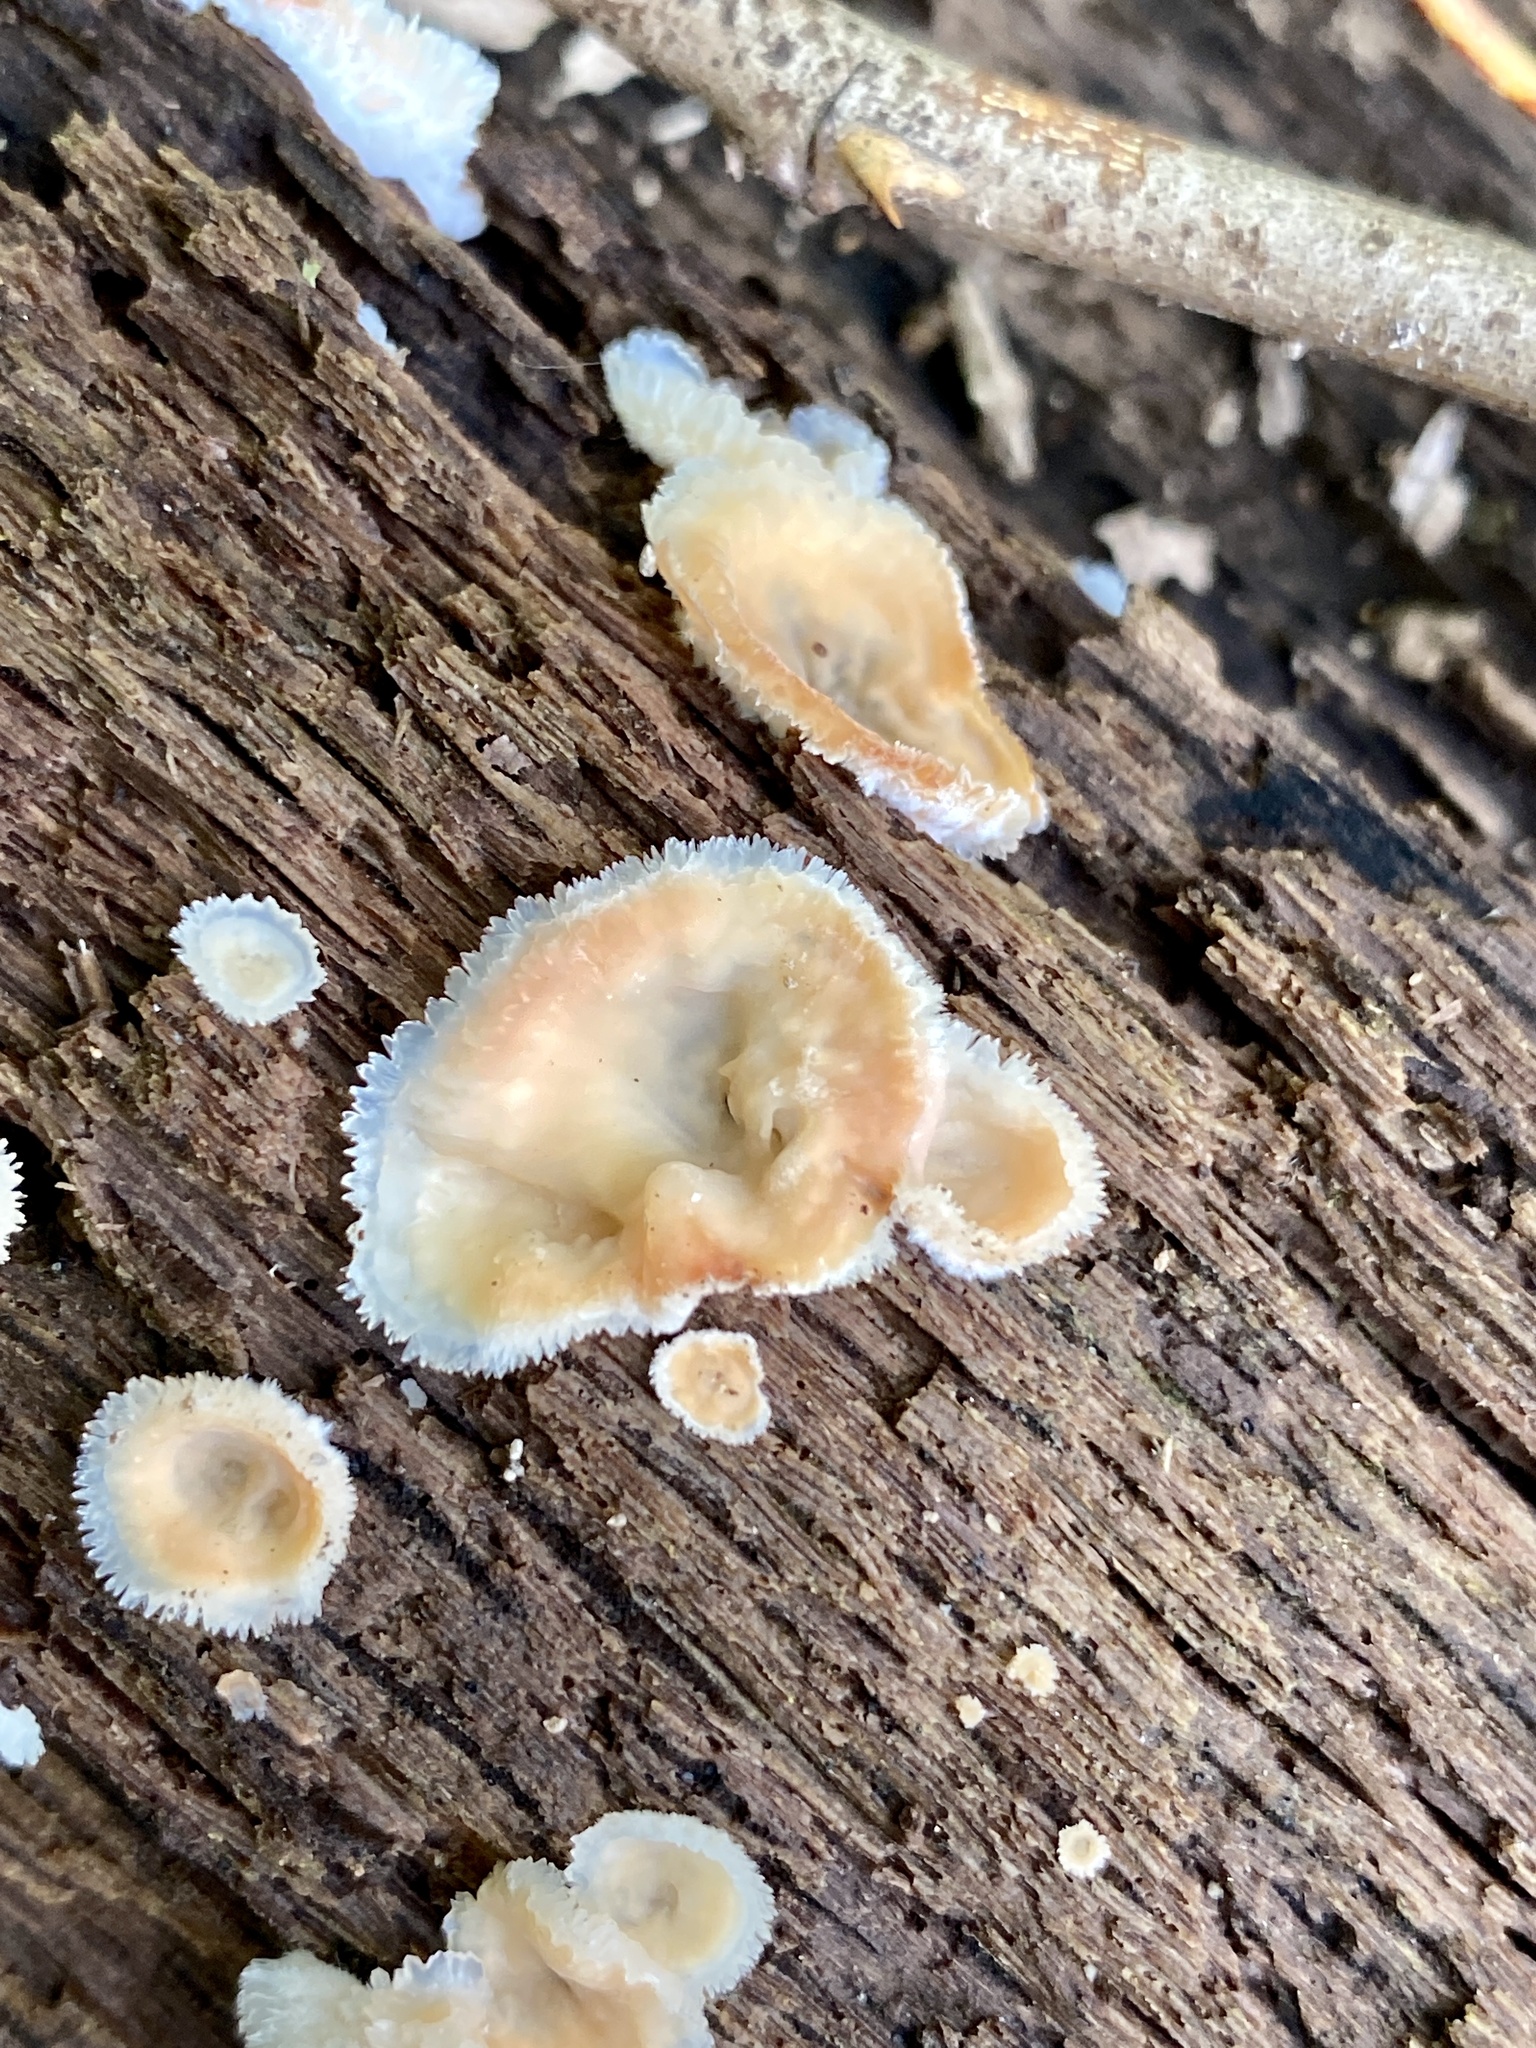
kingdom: Fungi
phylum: Basidiomycota
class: Agaricomycetes
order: Polyporales
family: Meruliaceae
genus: Phlebia
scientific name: Phlebia tremellosa
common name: Jelly rot
